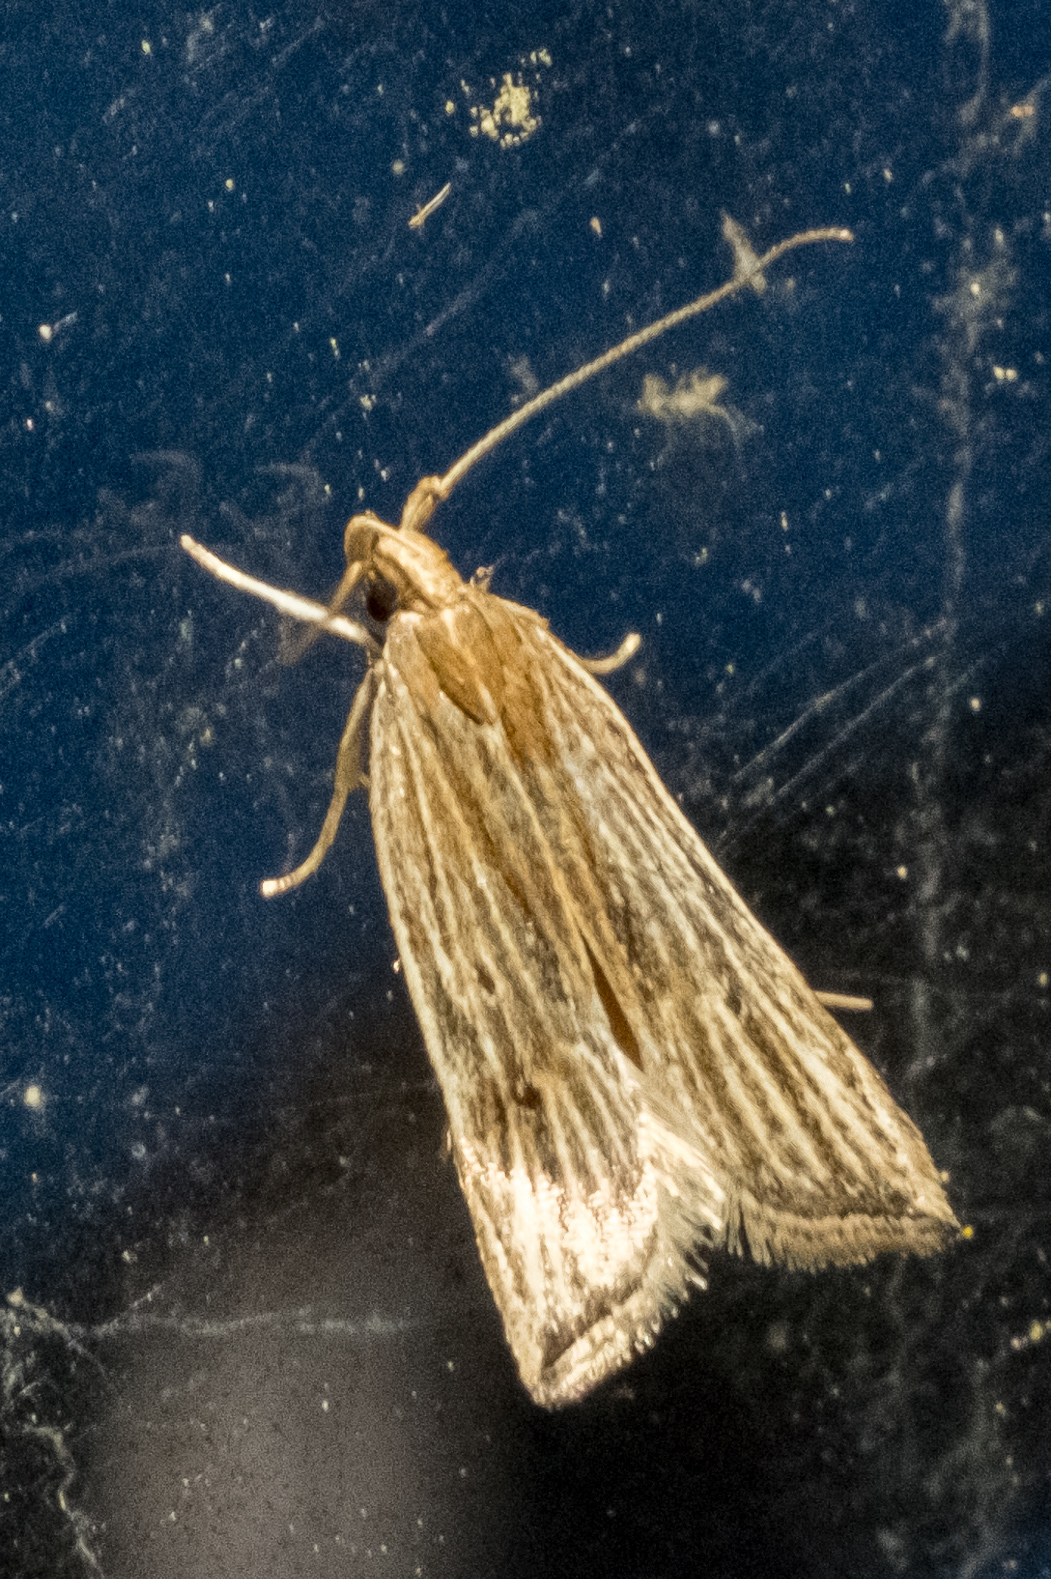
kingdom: Animalia
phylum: Arthropoda
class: Insecta
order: Lepidoptera
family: Gelechiidae
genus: Helcystogramma
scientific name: Helcystogramma hystricella
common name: Lanceolate moth
